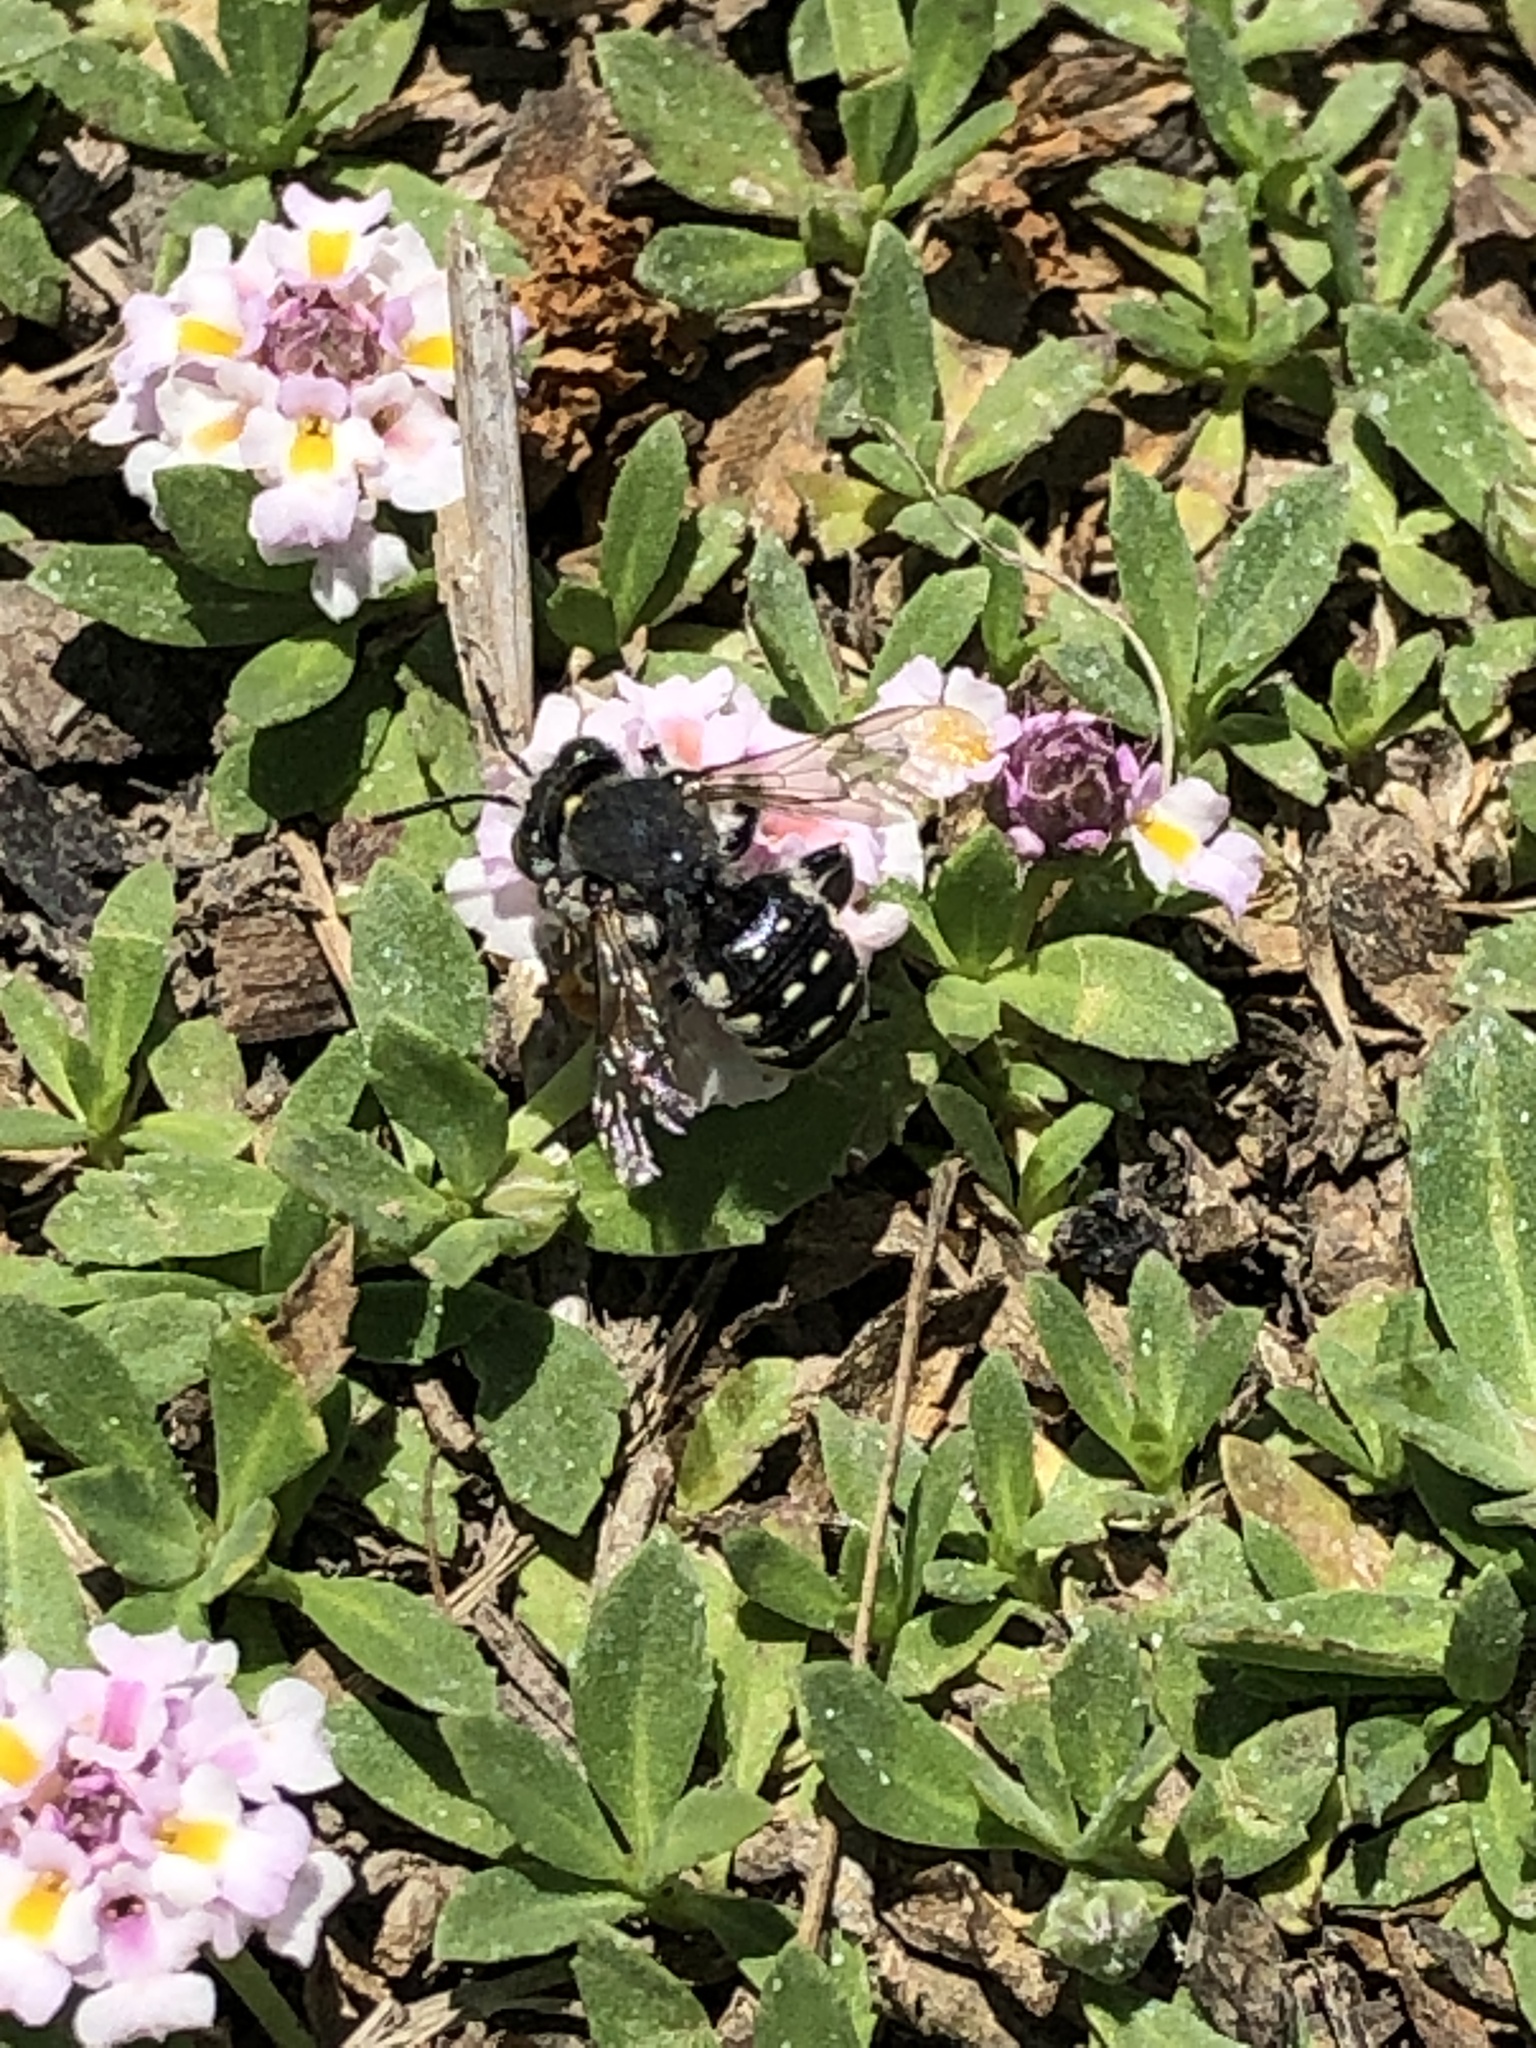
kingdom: Animalia
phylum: Arthropoda
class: Insecta
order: Hymenoptera
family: Megachilidae
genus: Anthidium
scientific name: Anthidium maculosum
